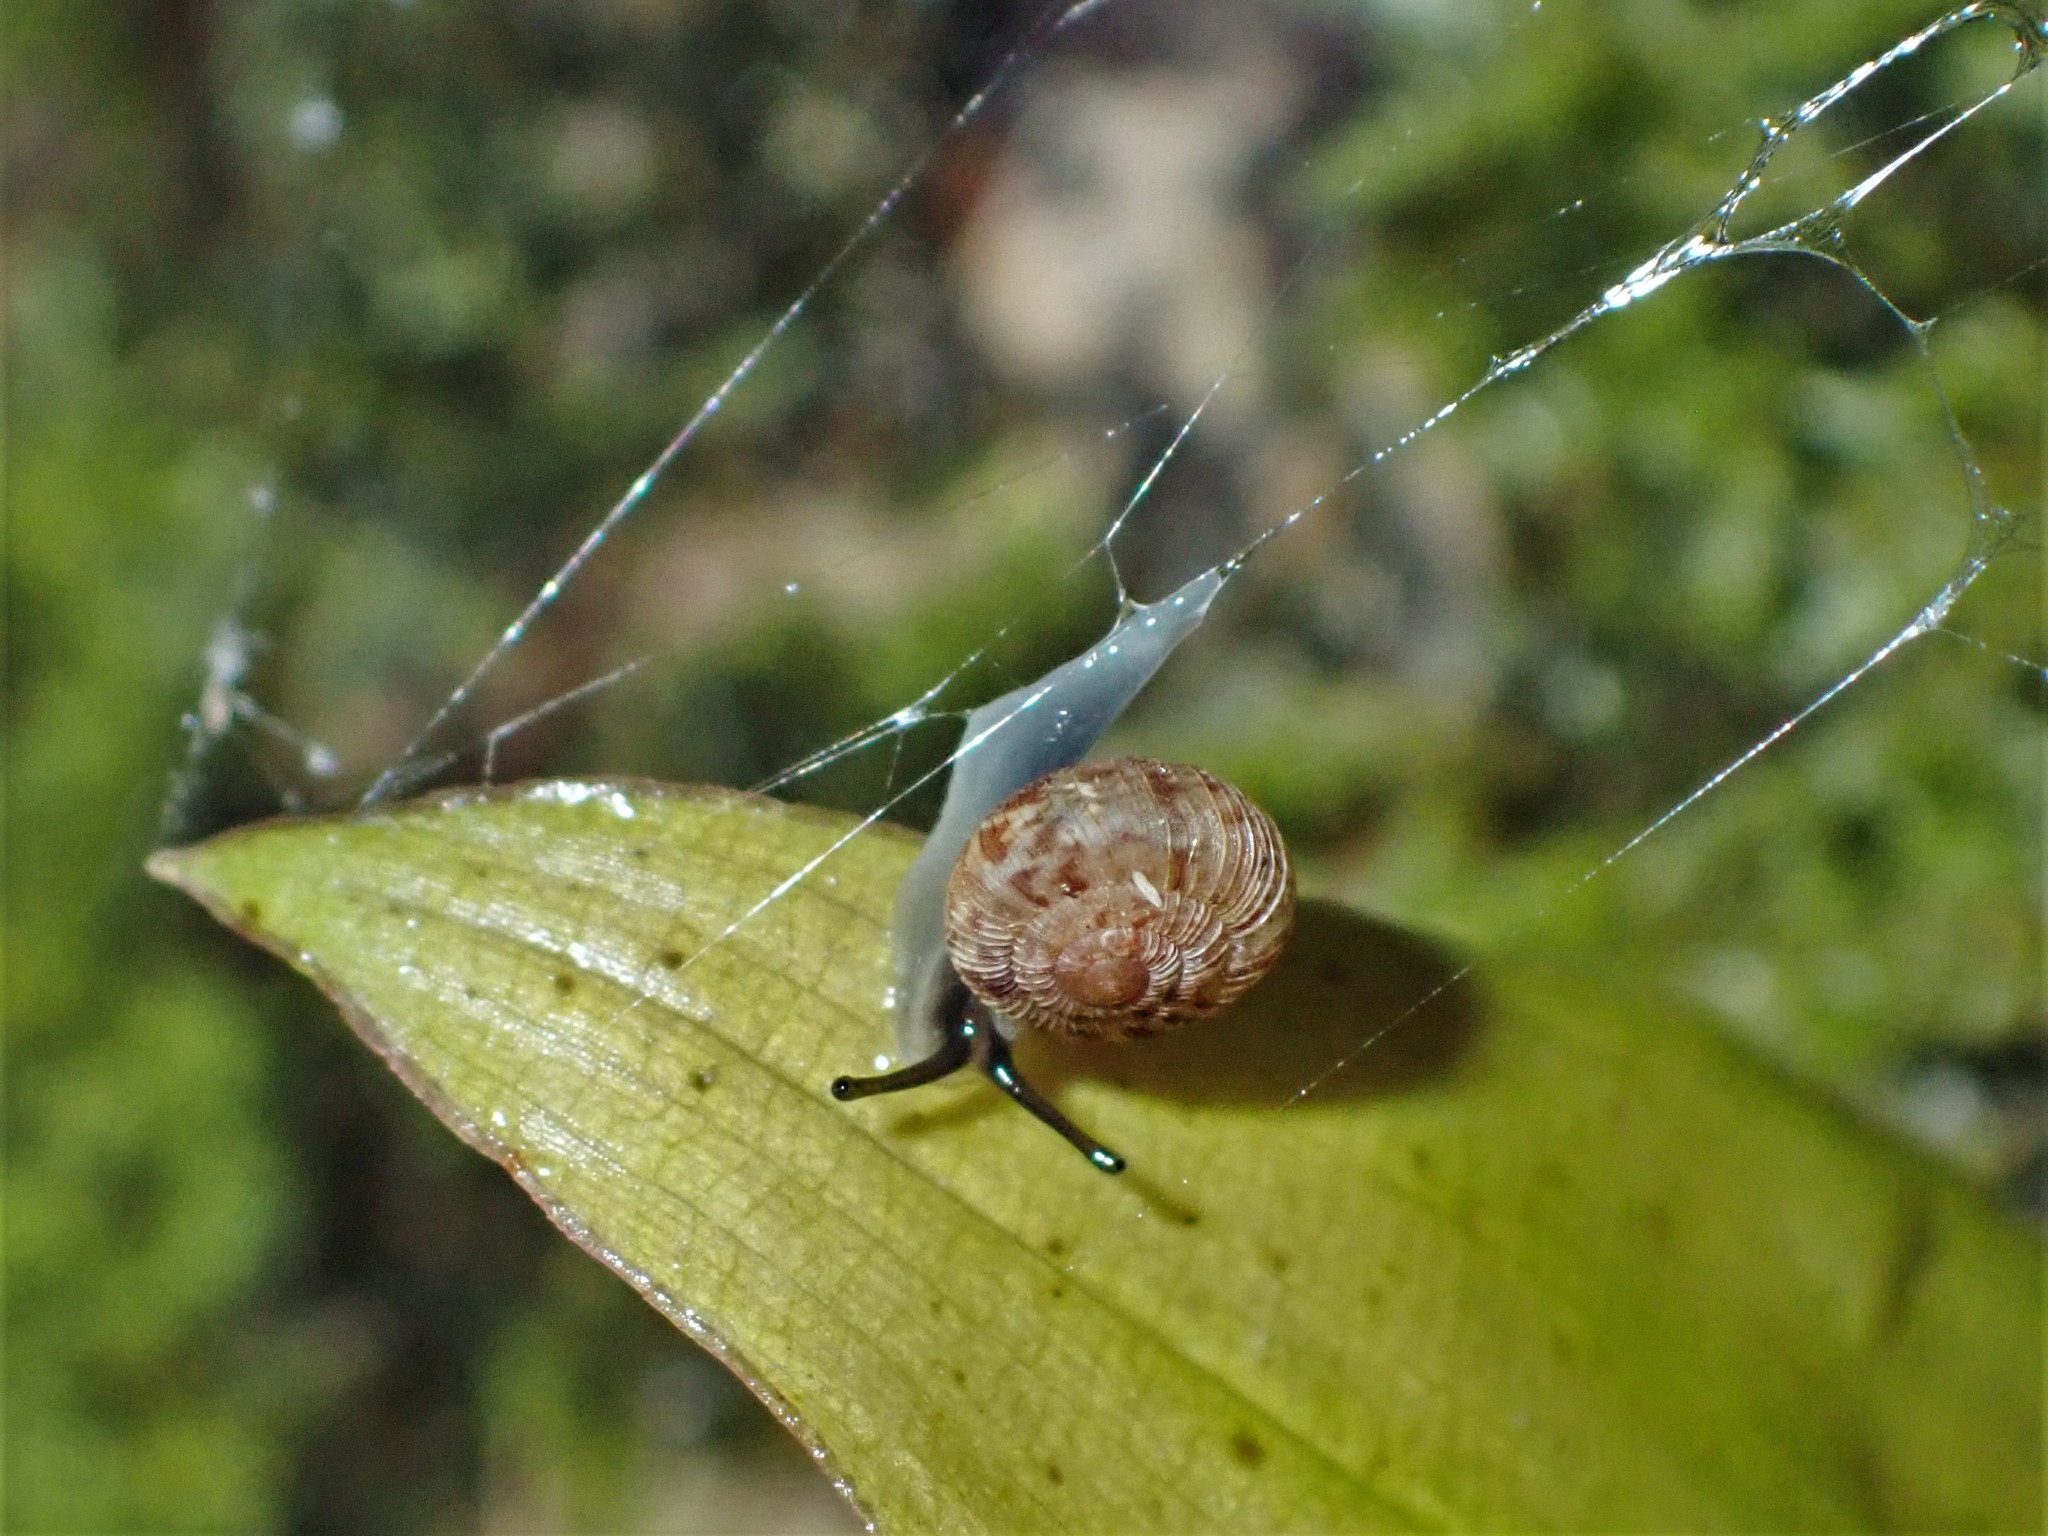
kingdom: Animalia
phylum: Mollusca
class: Gastropoda
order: Stylommatophora
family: Charopidae
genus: Phenacohelix
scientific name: Phenacohelix ponsonbyi
